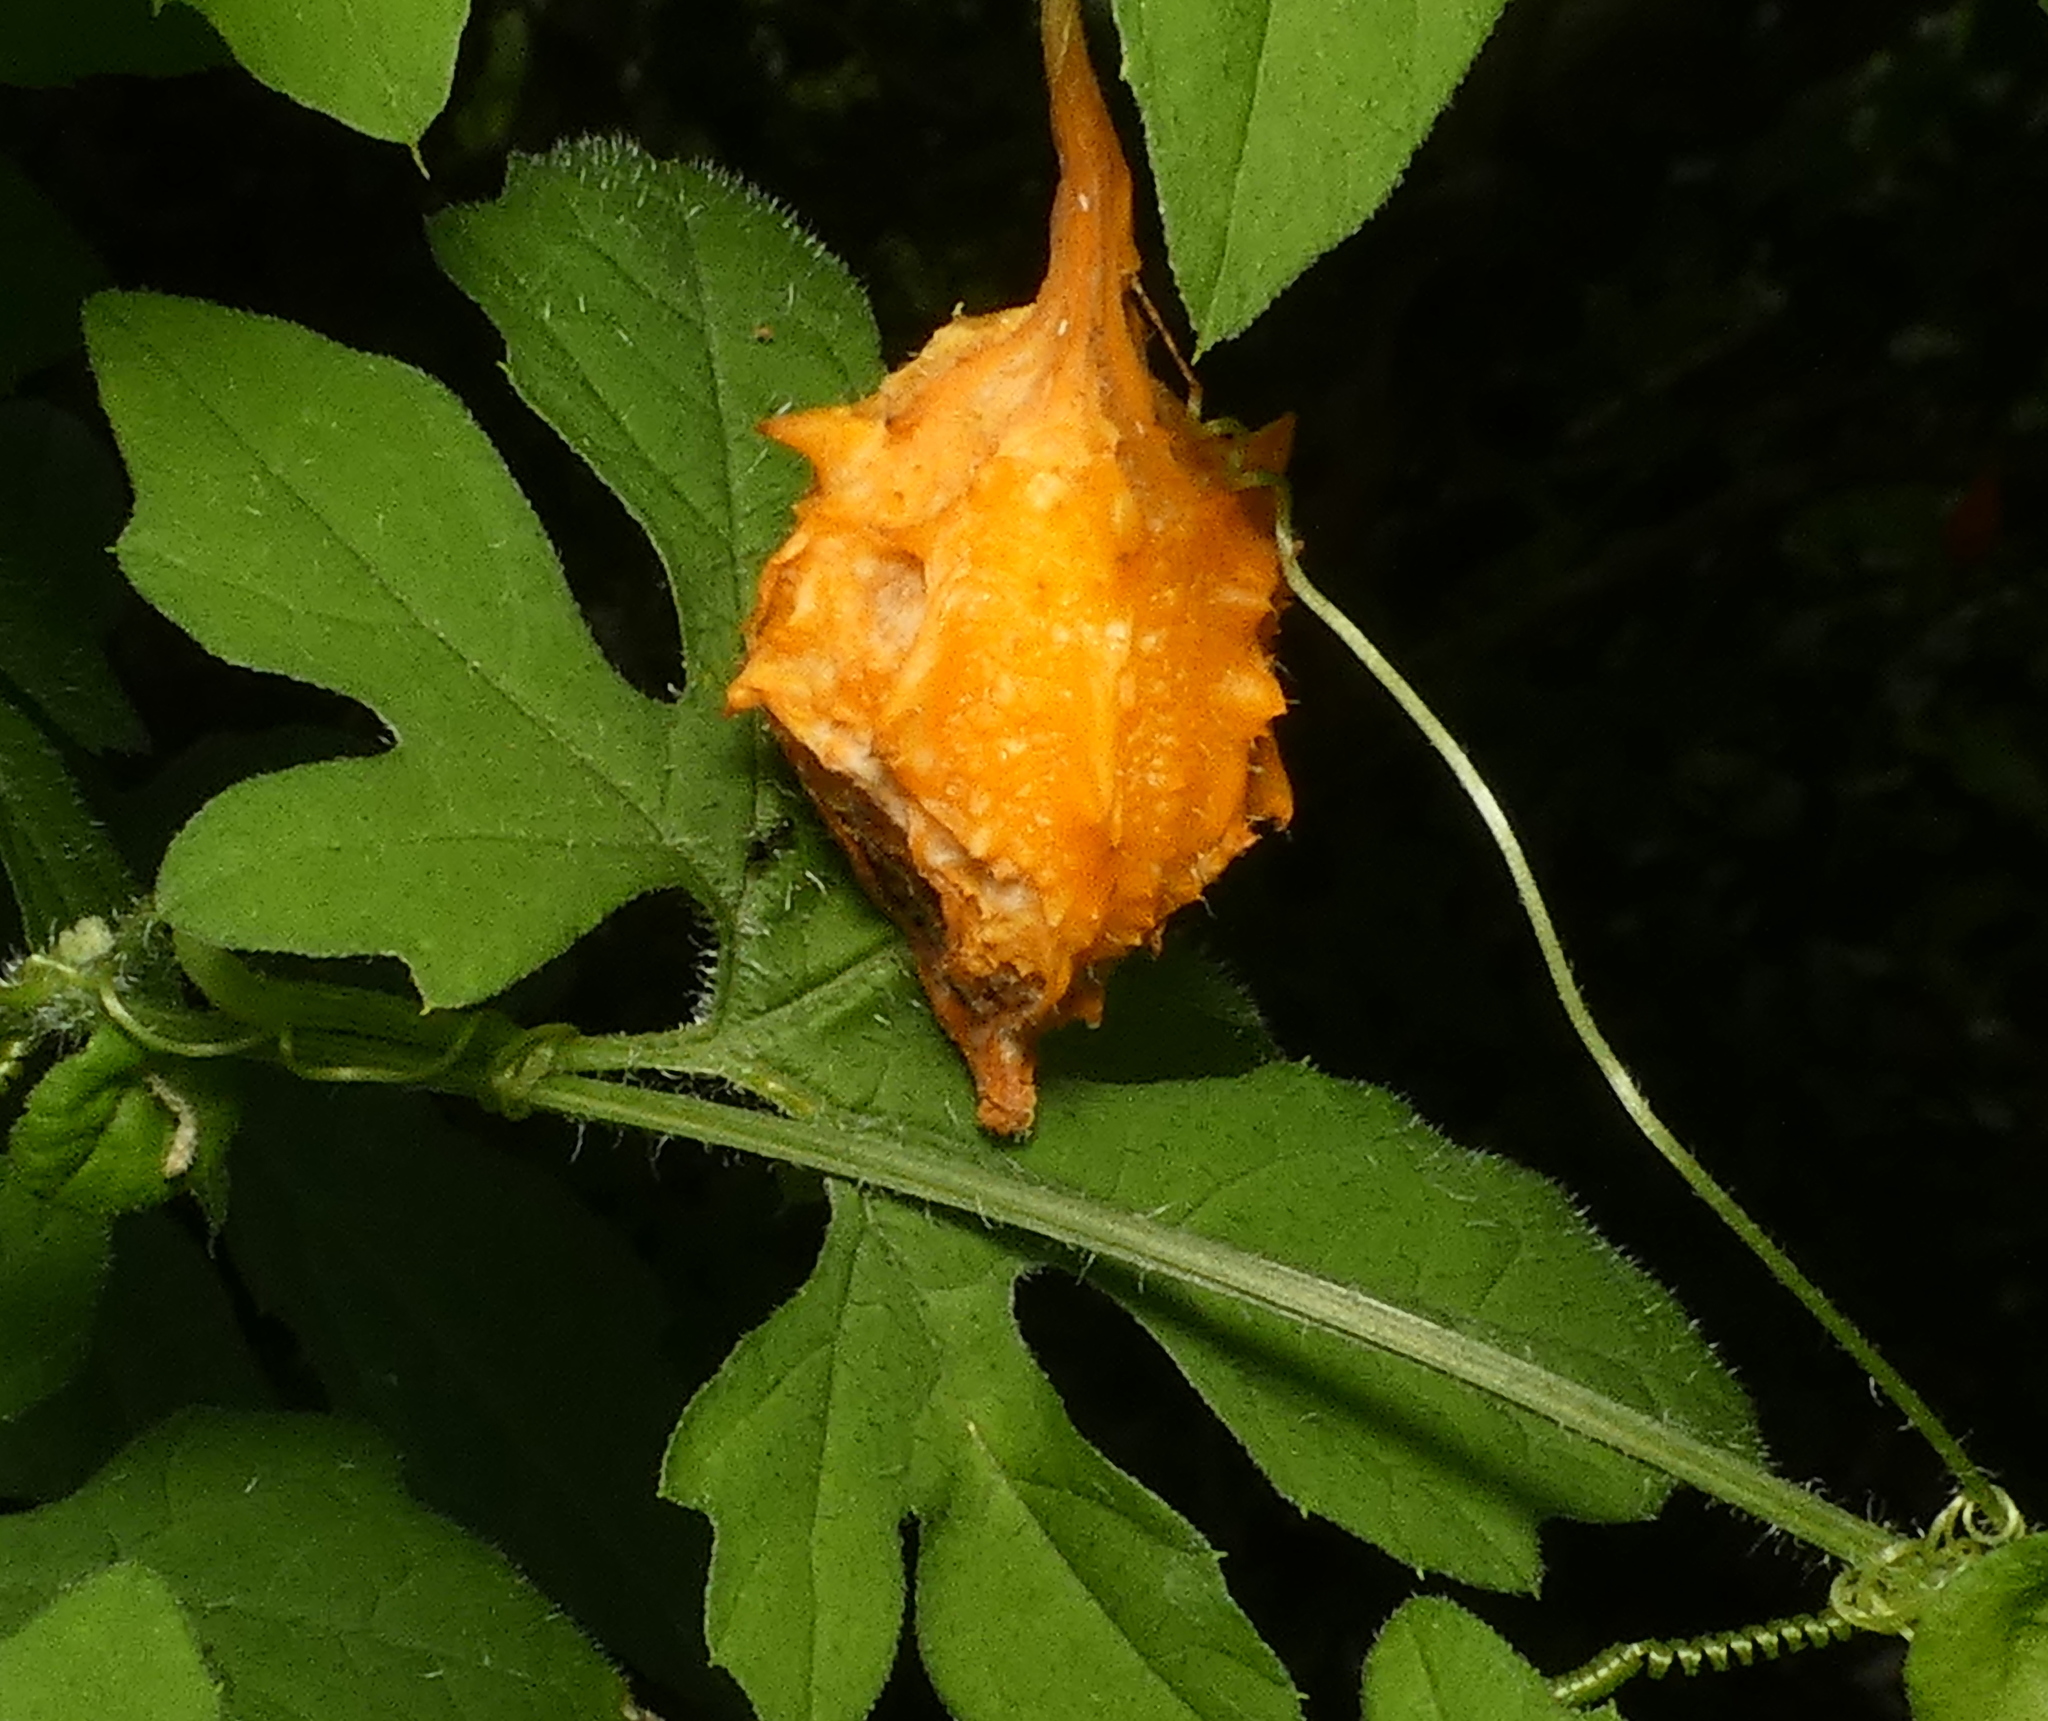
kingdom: Plantae
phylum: Tracheophyta
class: Magnoliopsida
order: Cucurbitales
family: Cucurbitaceae
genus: Momordica
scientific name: Momordica charantia
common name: Balsampear
